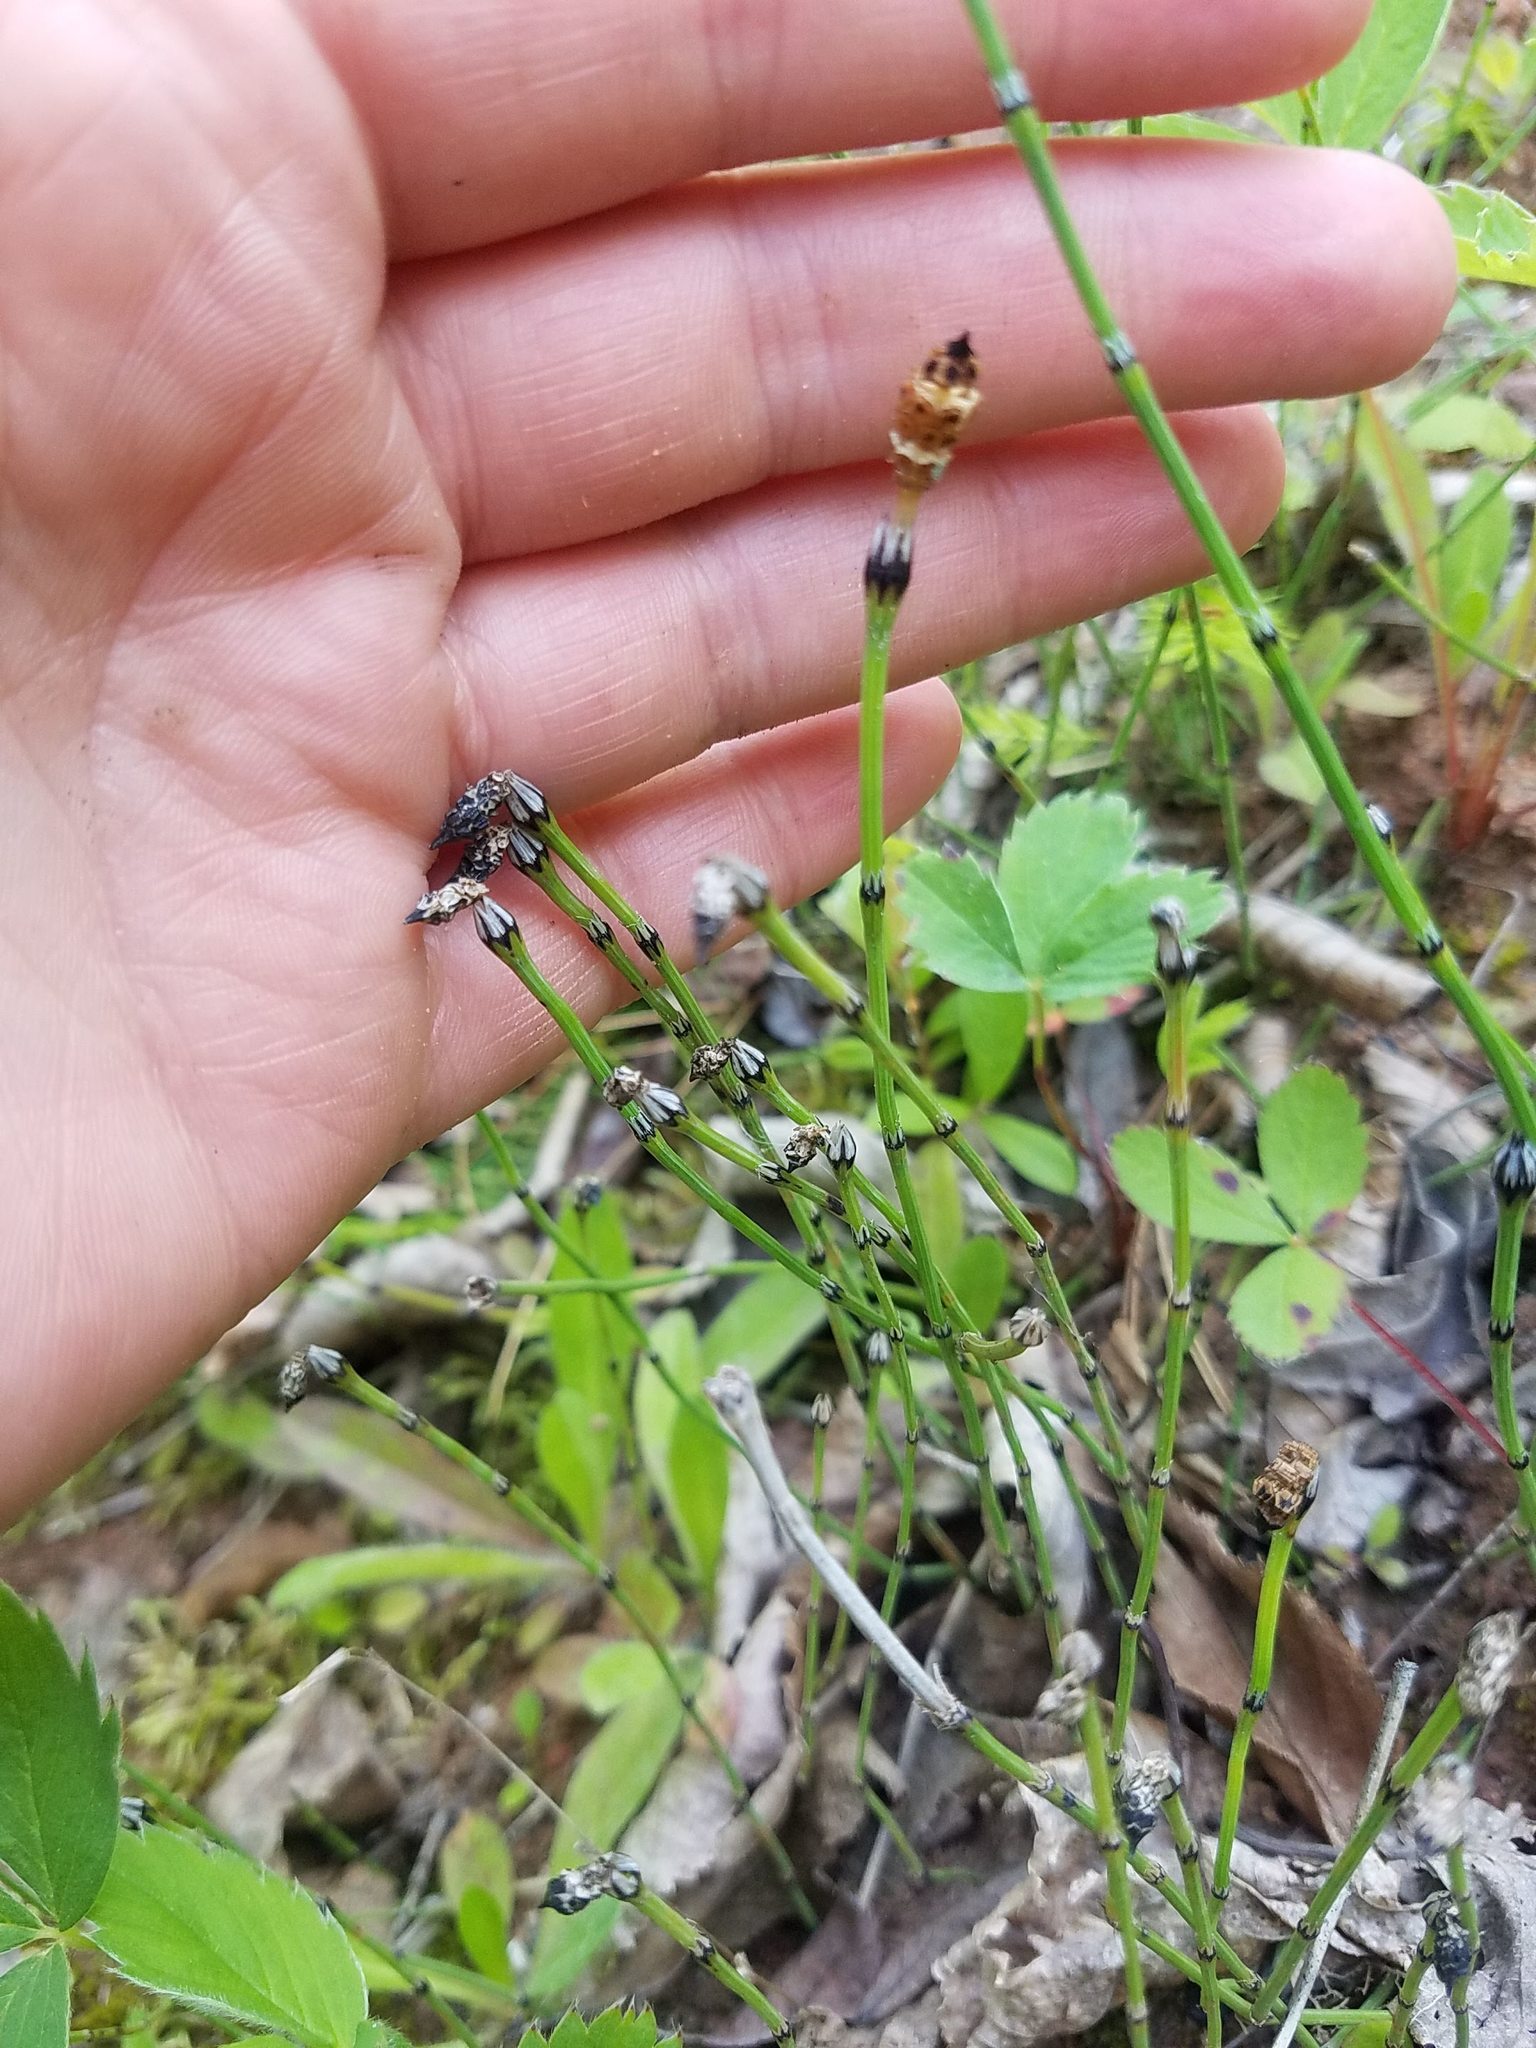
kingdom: Plantae
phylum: Tracheophyta
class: Polypodiopsida
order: Equisetales
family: Equisetaceae
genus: Equisetum
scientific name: Equisetum variegatum
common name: Variegated horsetail
